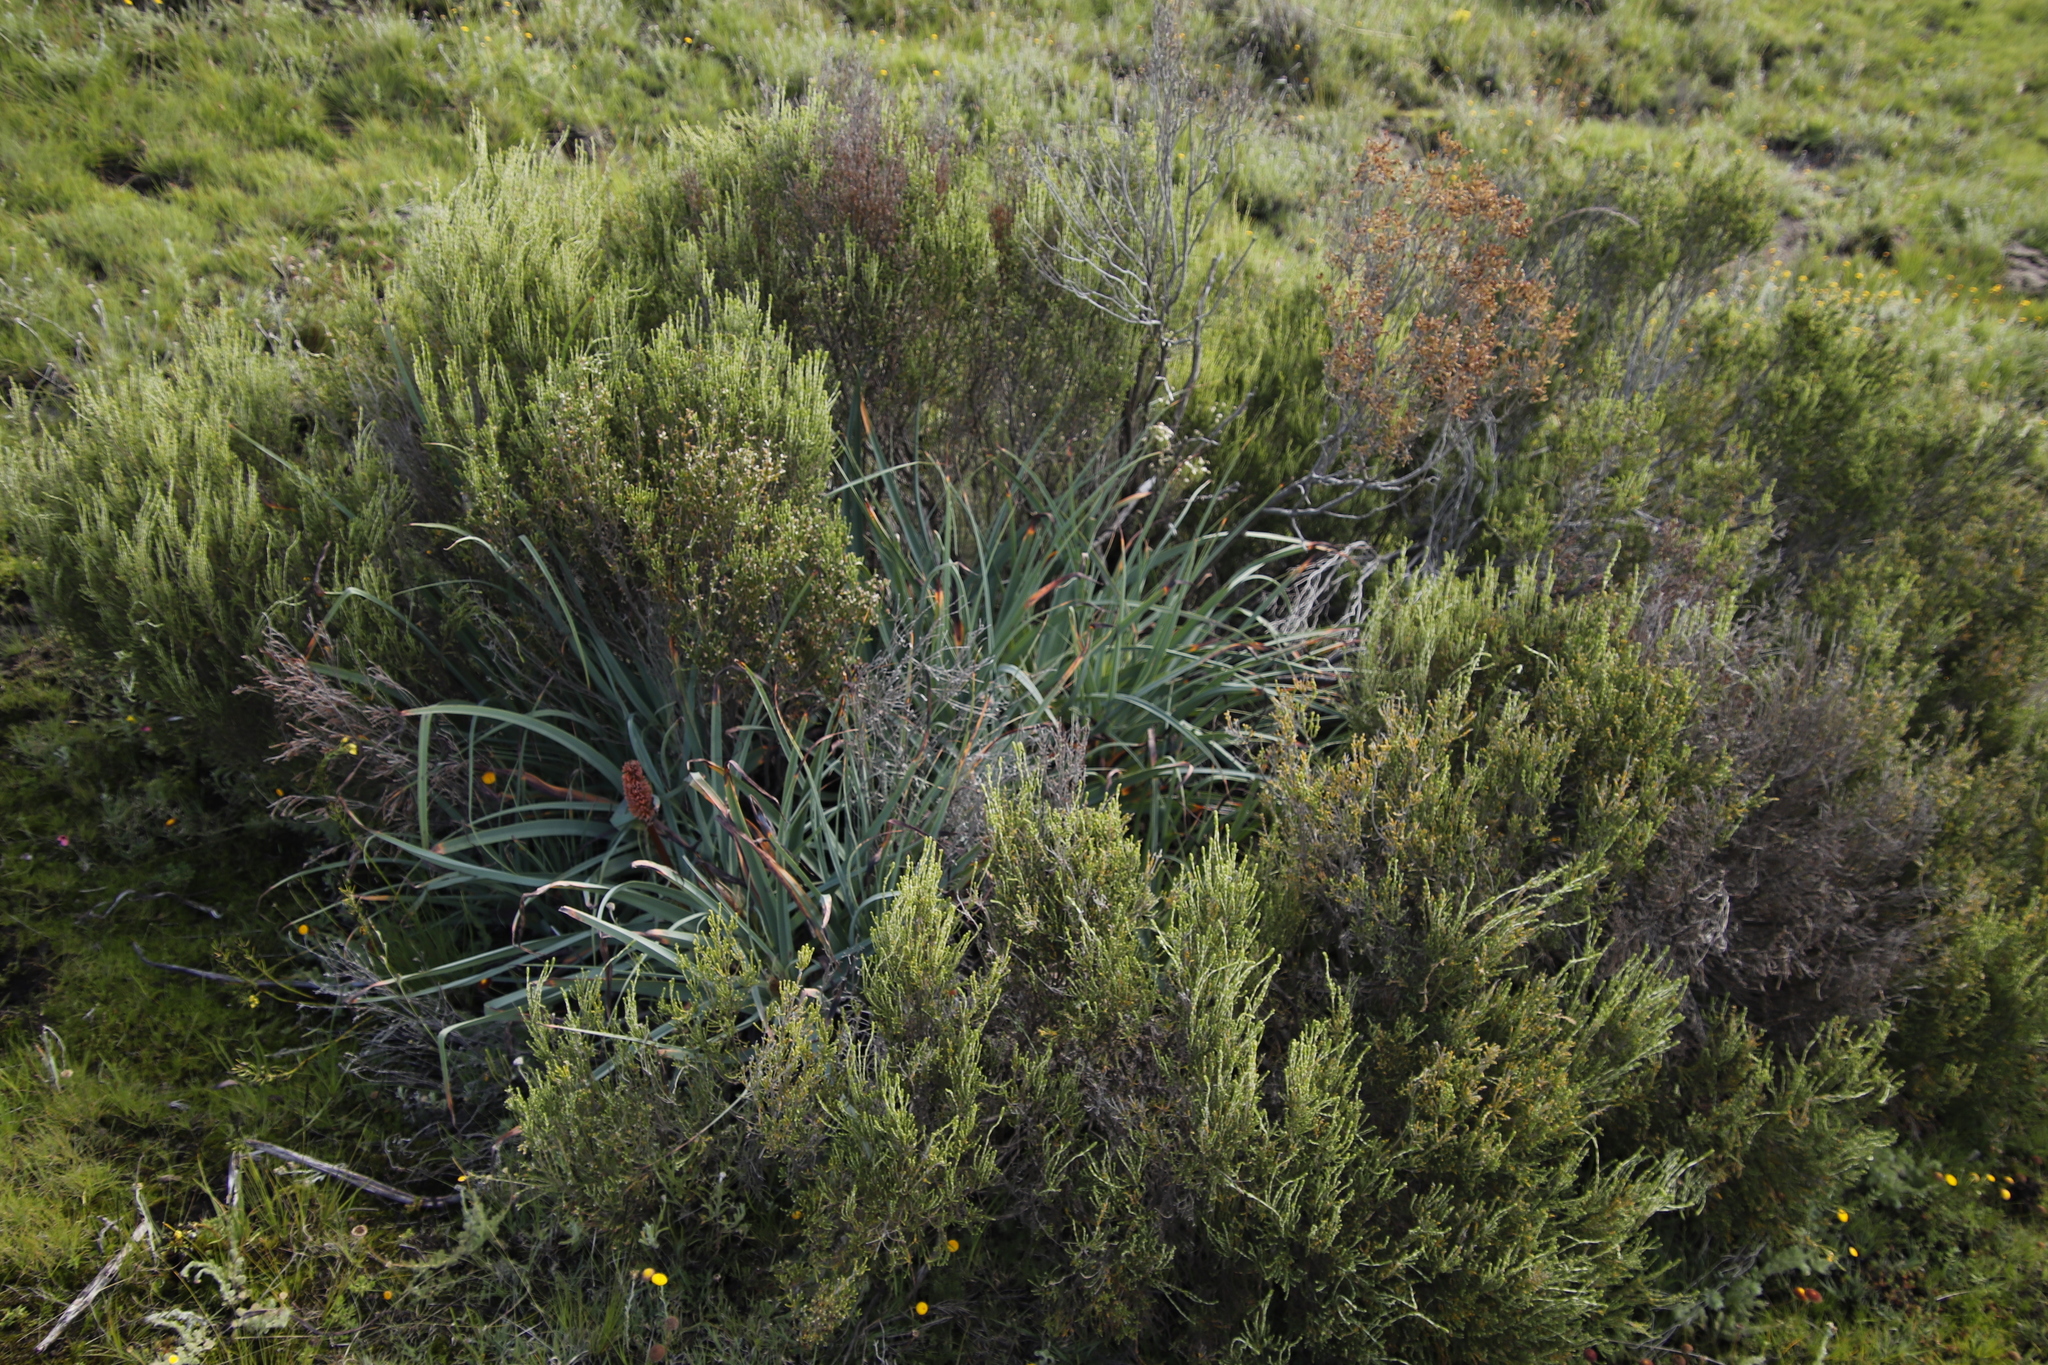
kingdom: Plantae
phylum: Tracheophyta
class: Liliopsida
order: Asparagales
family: Asphodelaceae
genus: Kniphofia
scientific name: Kniphofia caulescens
